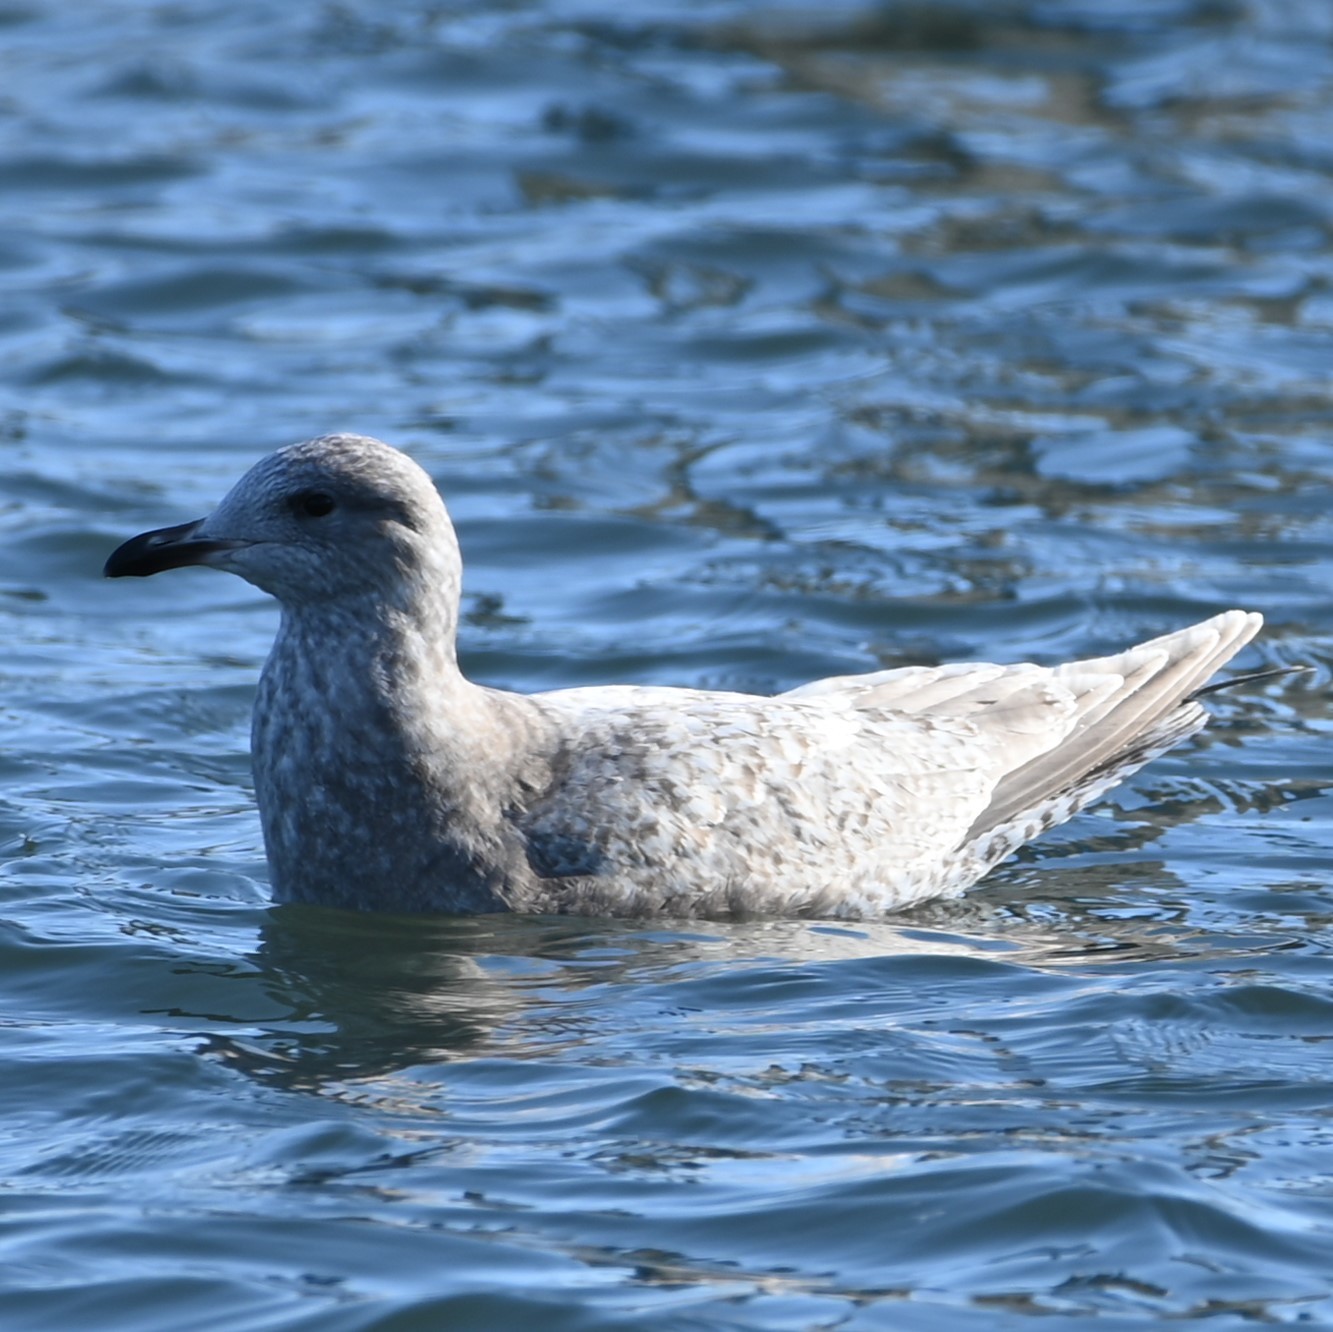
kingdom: Animalia
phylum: Chordata
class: Aves
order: Charadriiformes
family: Laridae
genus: Larus
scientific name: Larus glaucoides
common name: Iceland gull
